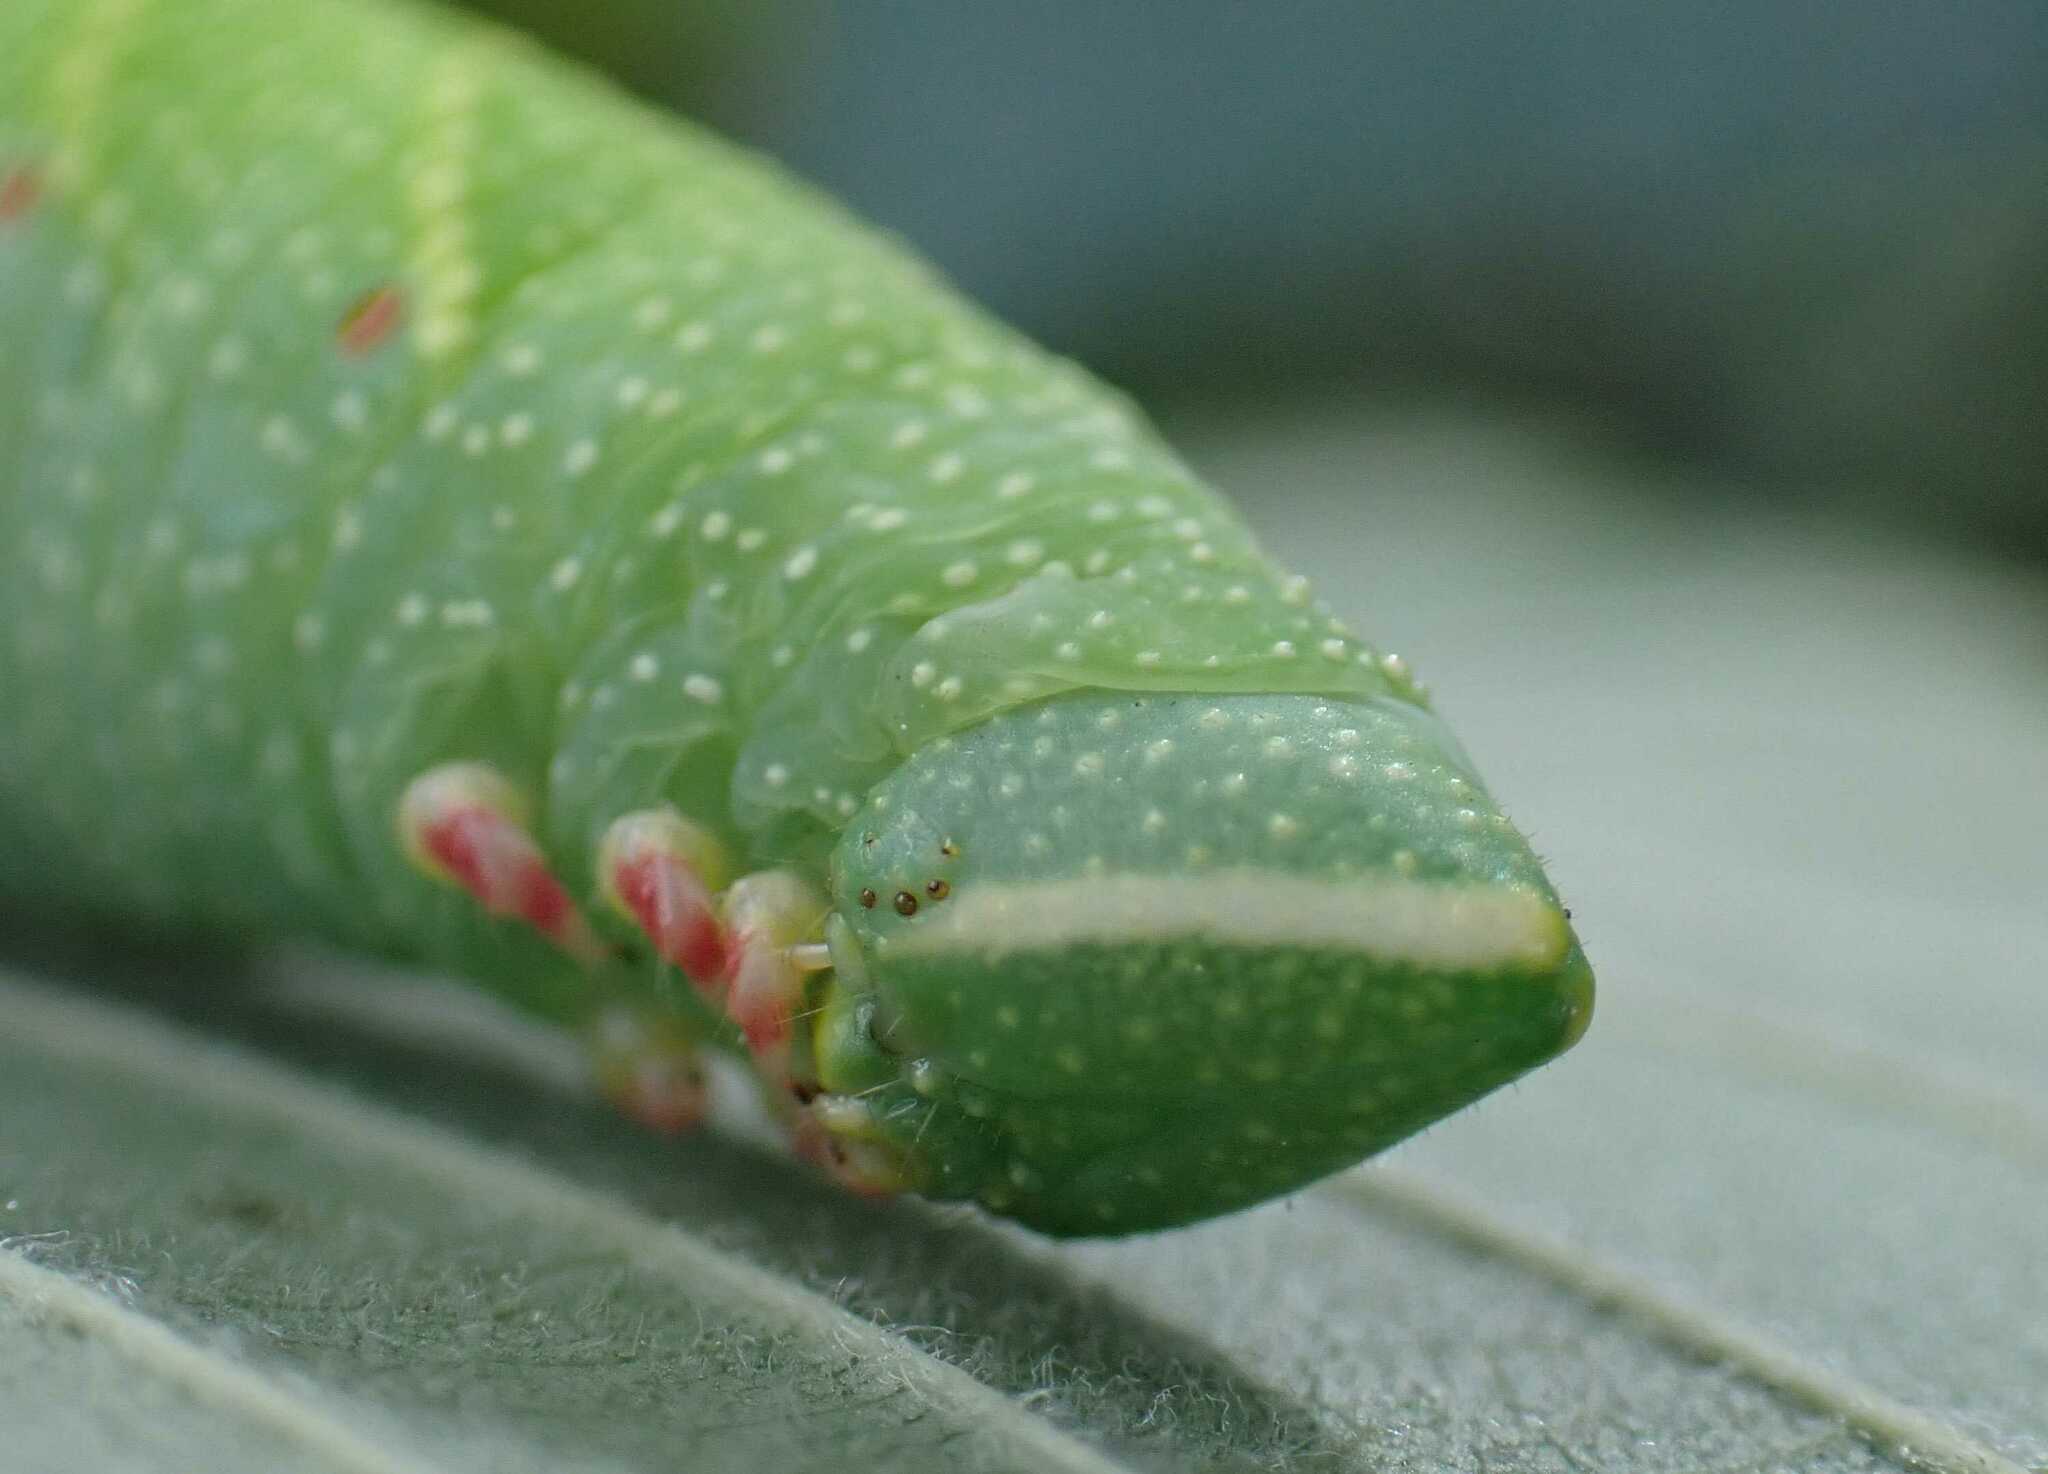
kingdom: Animalia
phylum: Arthropoda
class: Insecta
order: Lepidoptera
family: Sphingidae
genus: Mimas
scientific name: Mimas tiliae
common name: Lime hawk-moth
